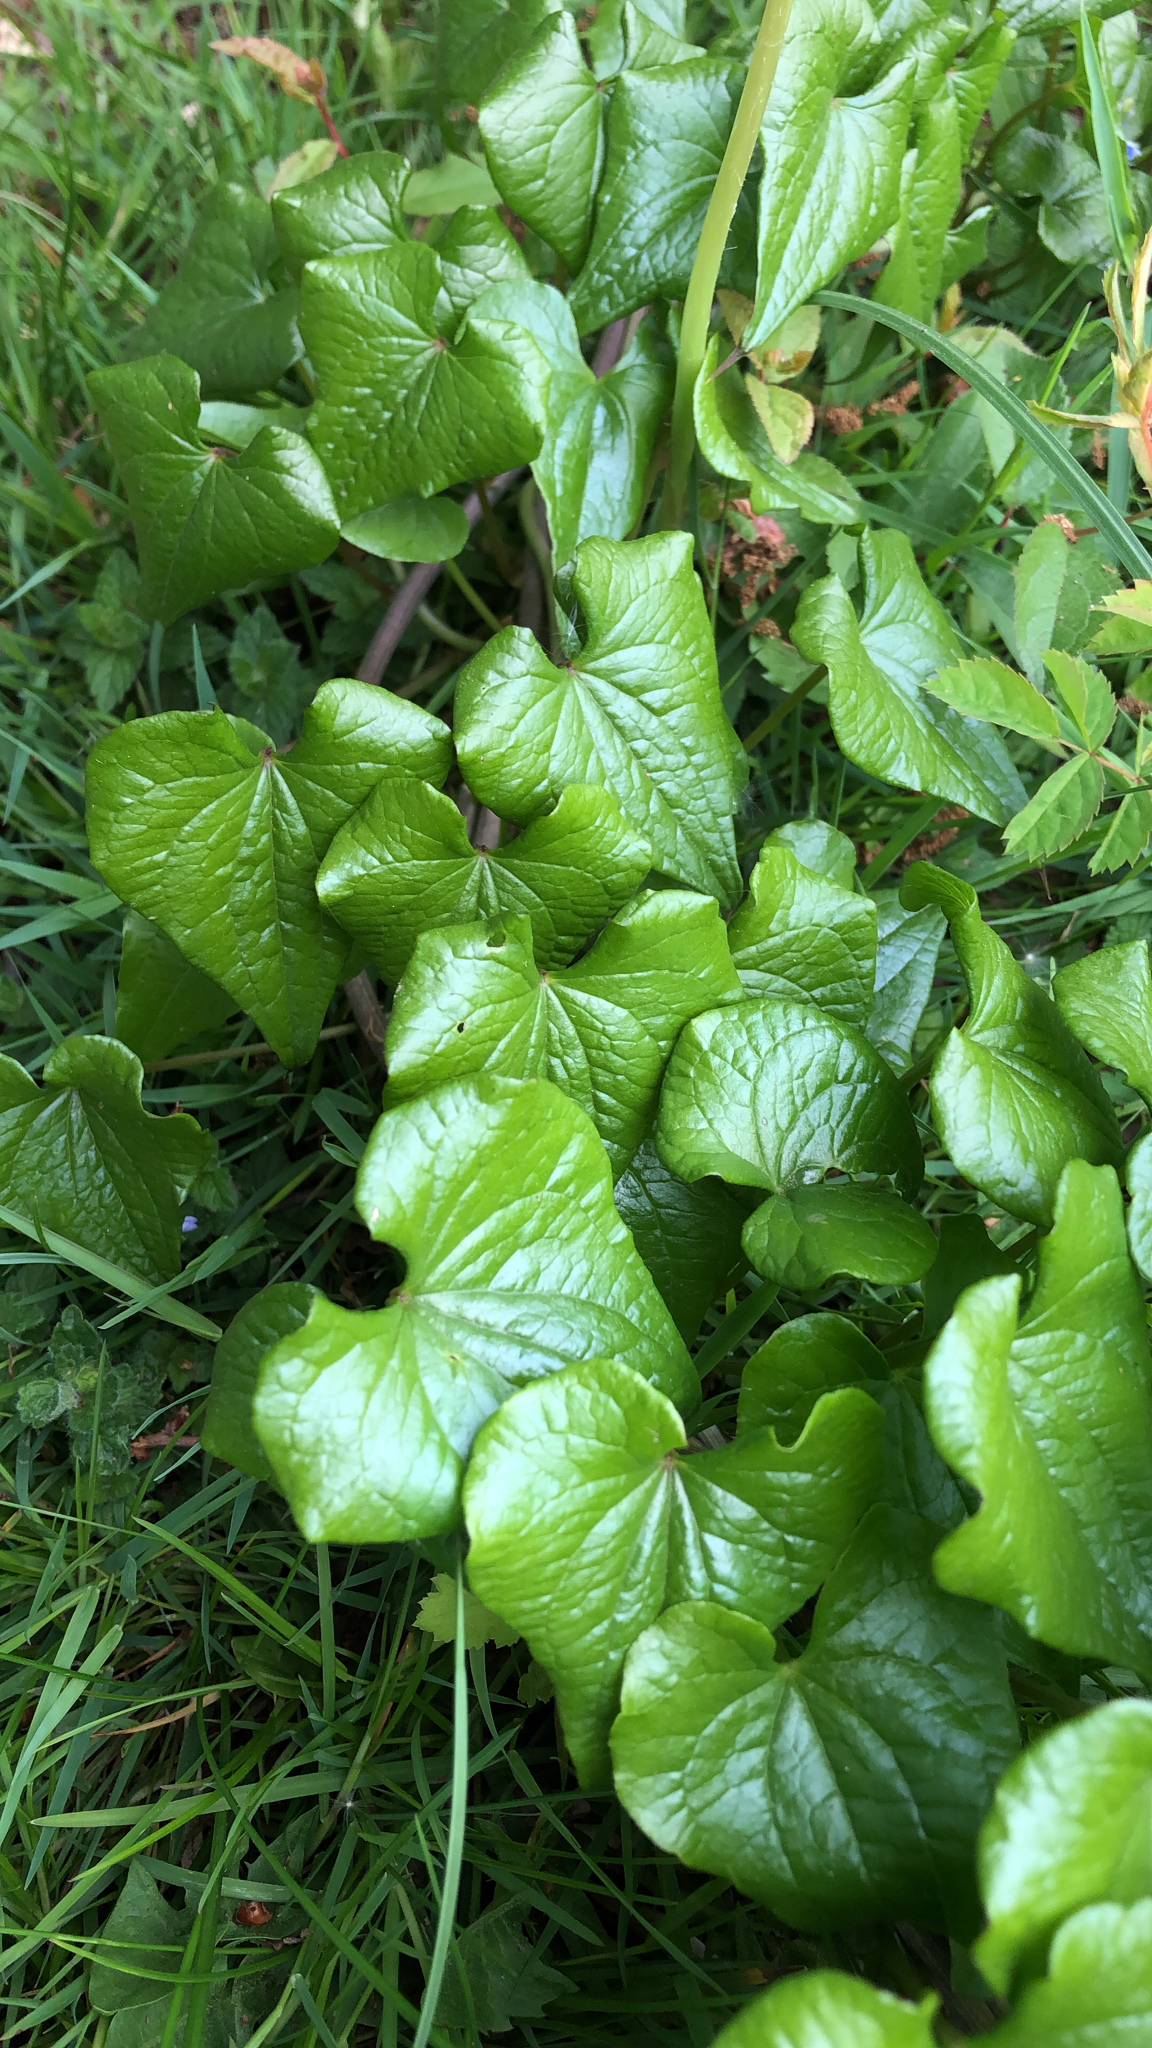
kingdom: Plantae
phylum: Tracheophyta
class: Liliopsida
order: Dioscoreales
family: Dioscoreaceae
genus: Dioscorea
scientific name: Dioscorea communis
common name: Black-bindweed
